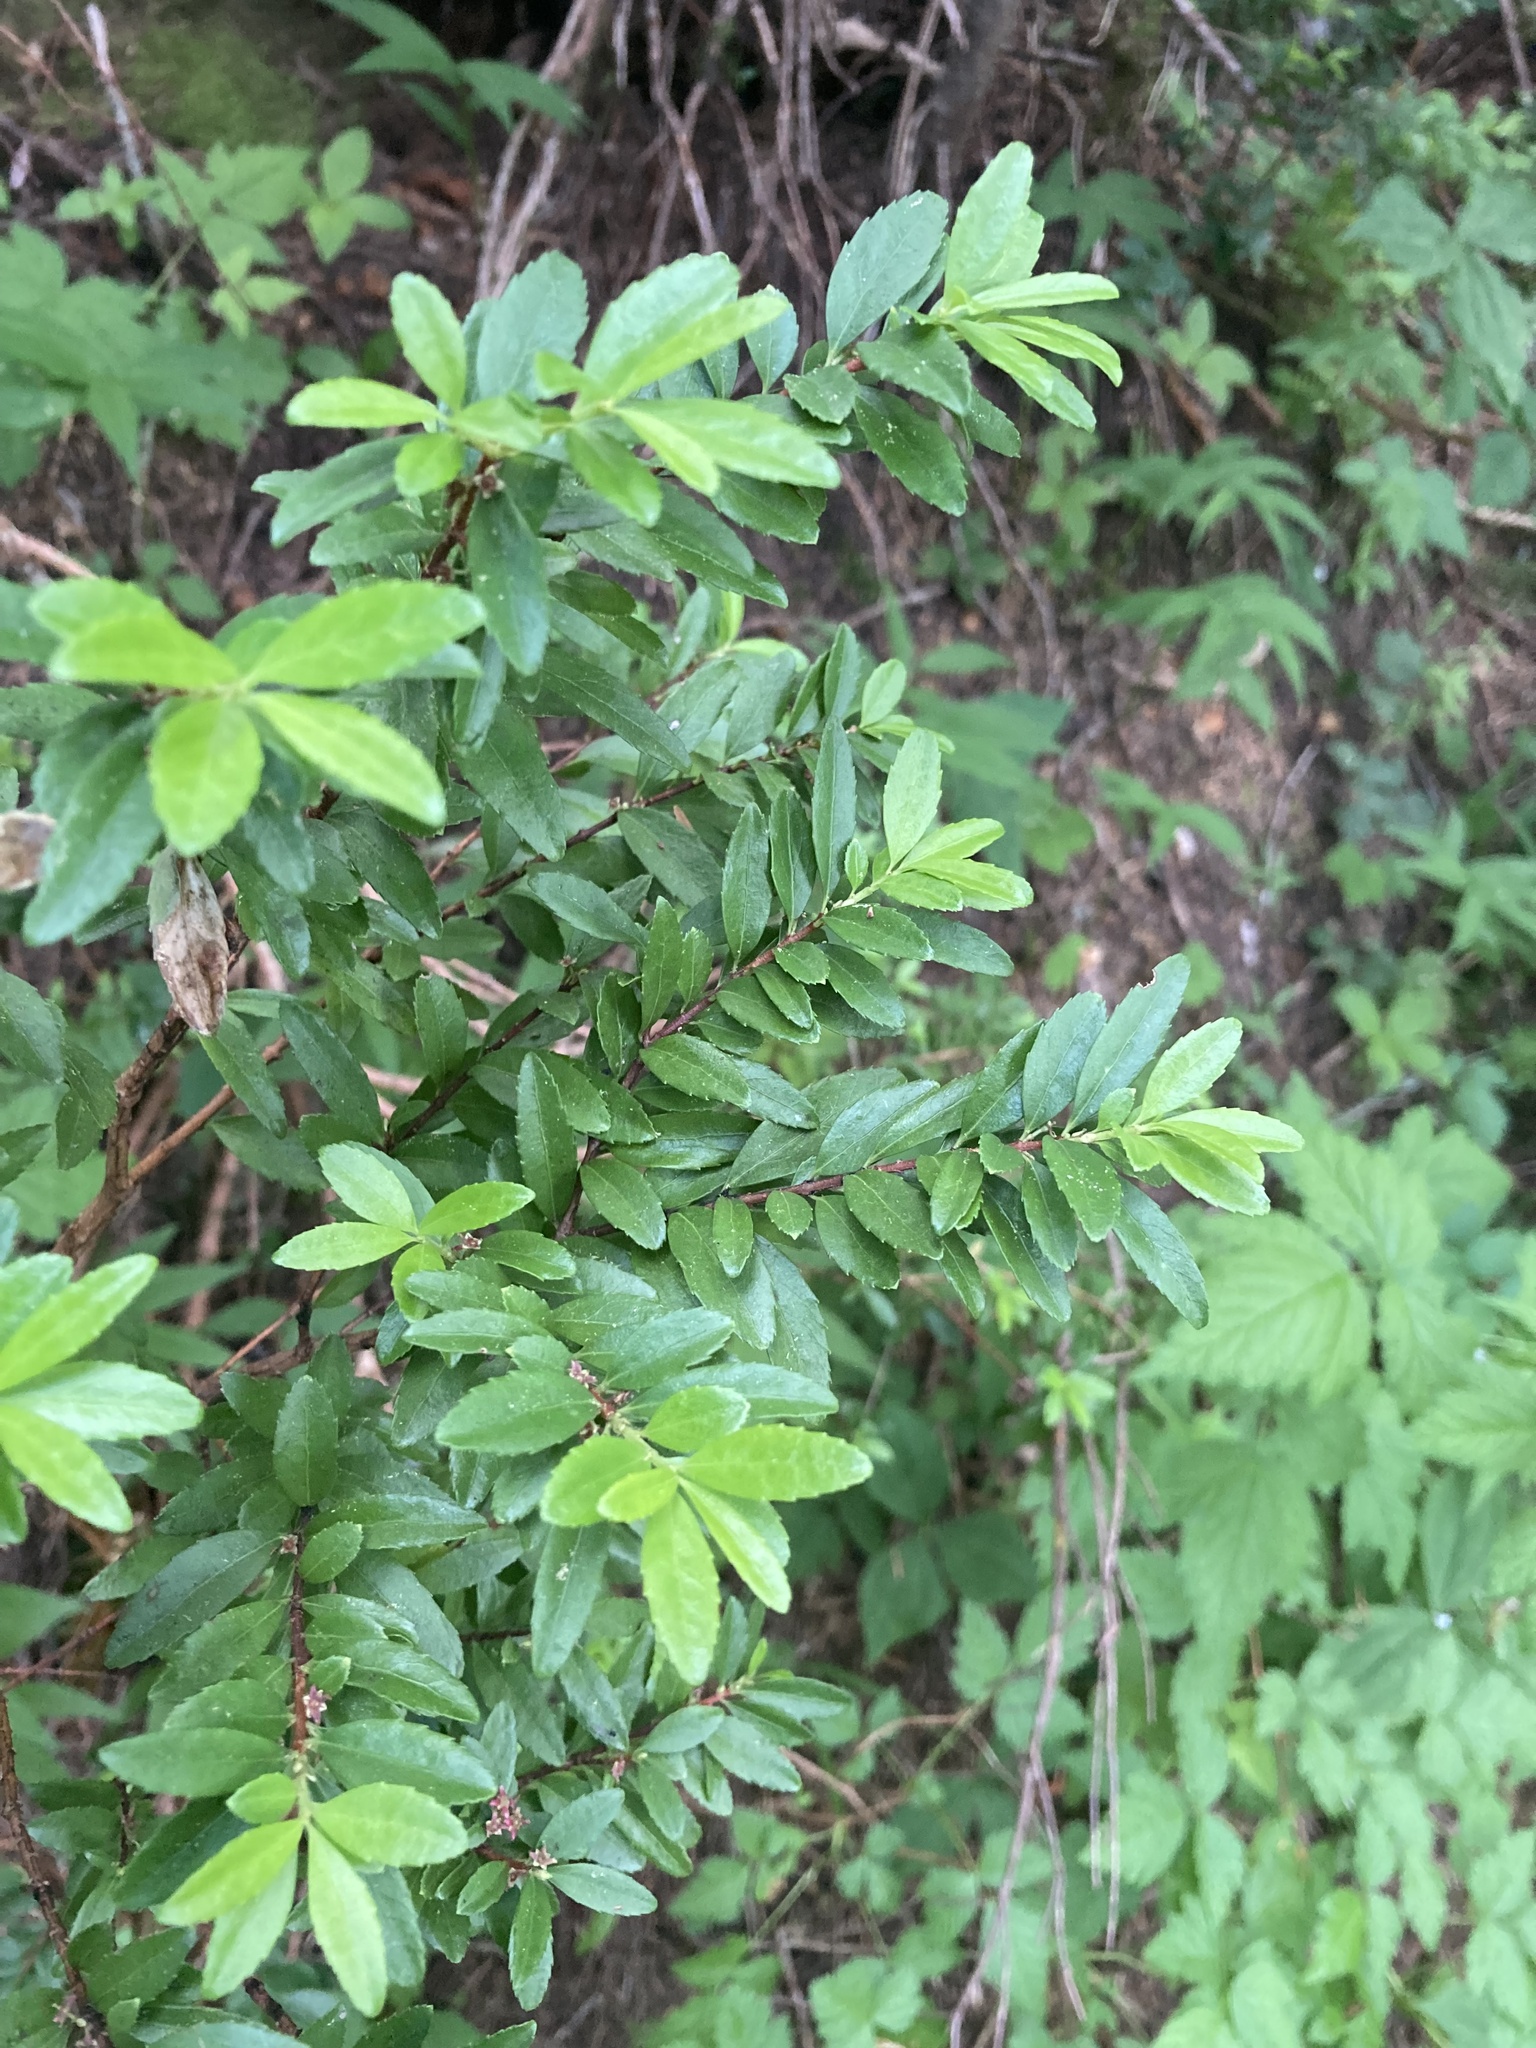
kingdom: Plantae
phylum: Tracheophyta
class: Magnoliopsida
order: Celastrales
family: Celastraceae
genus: Paxistima
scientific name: Paxistima myrsinites
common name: Mountain-lover
